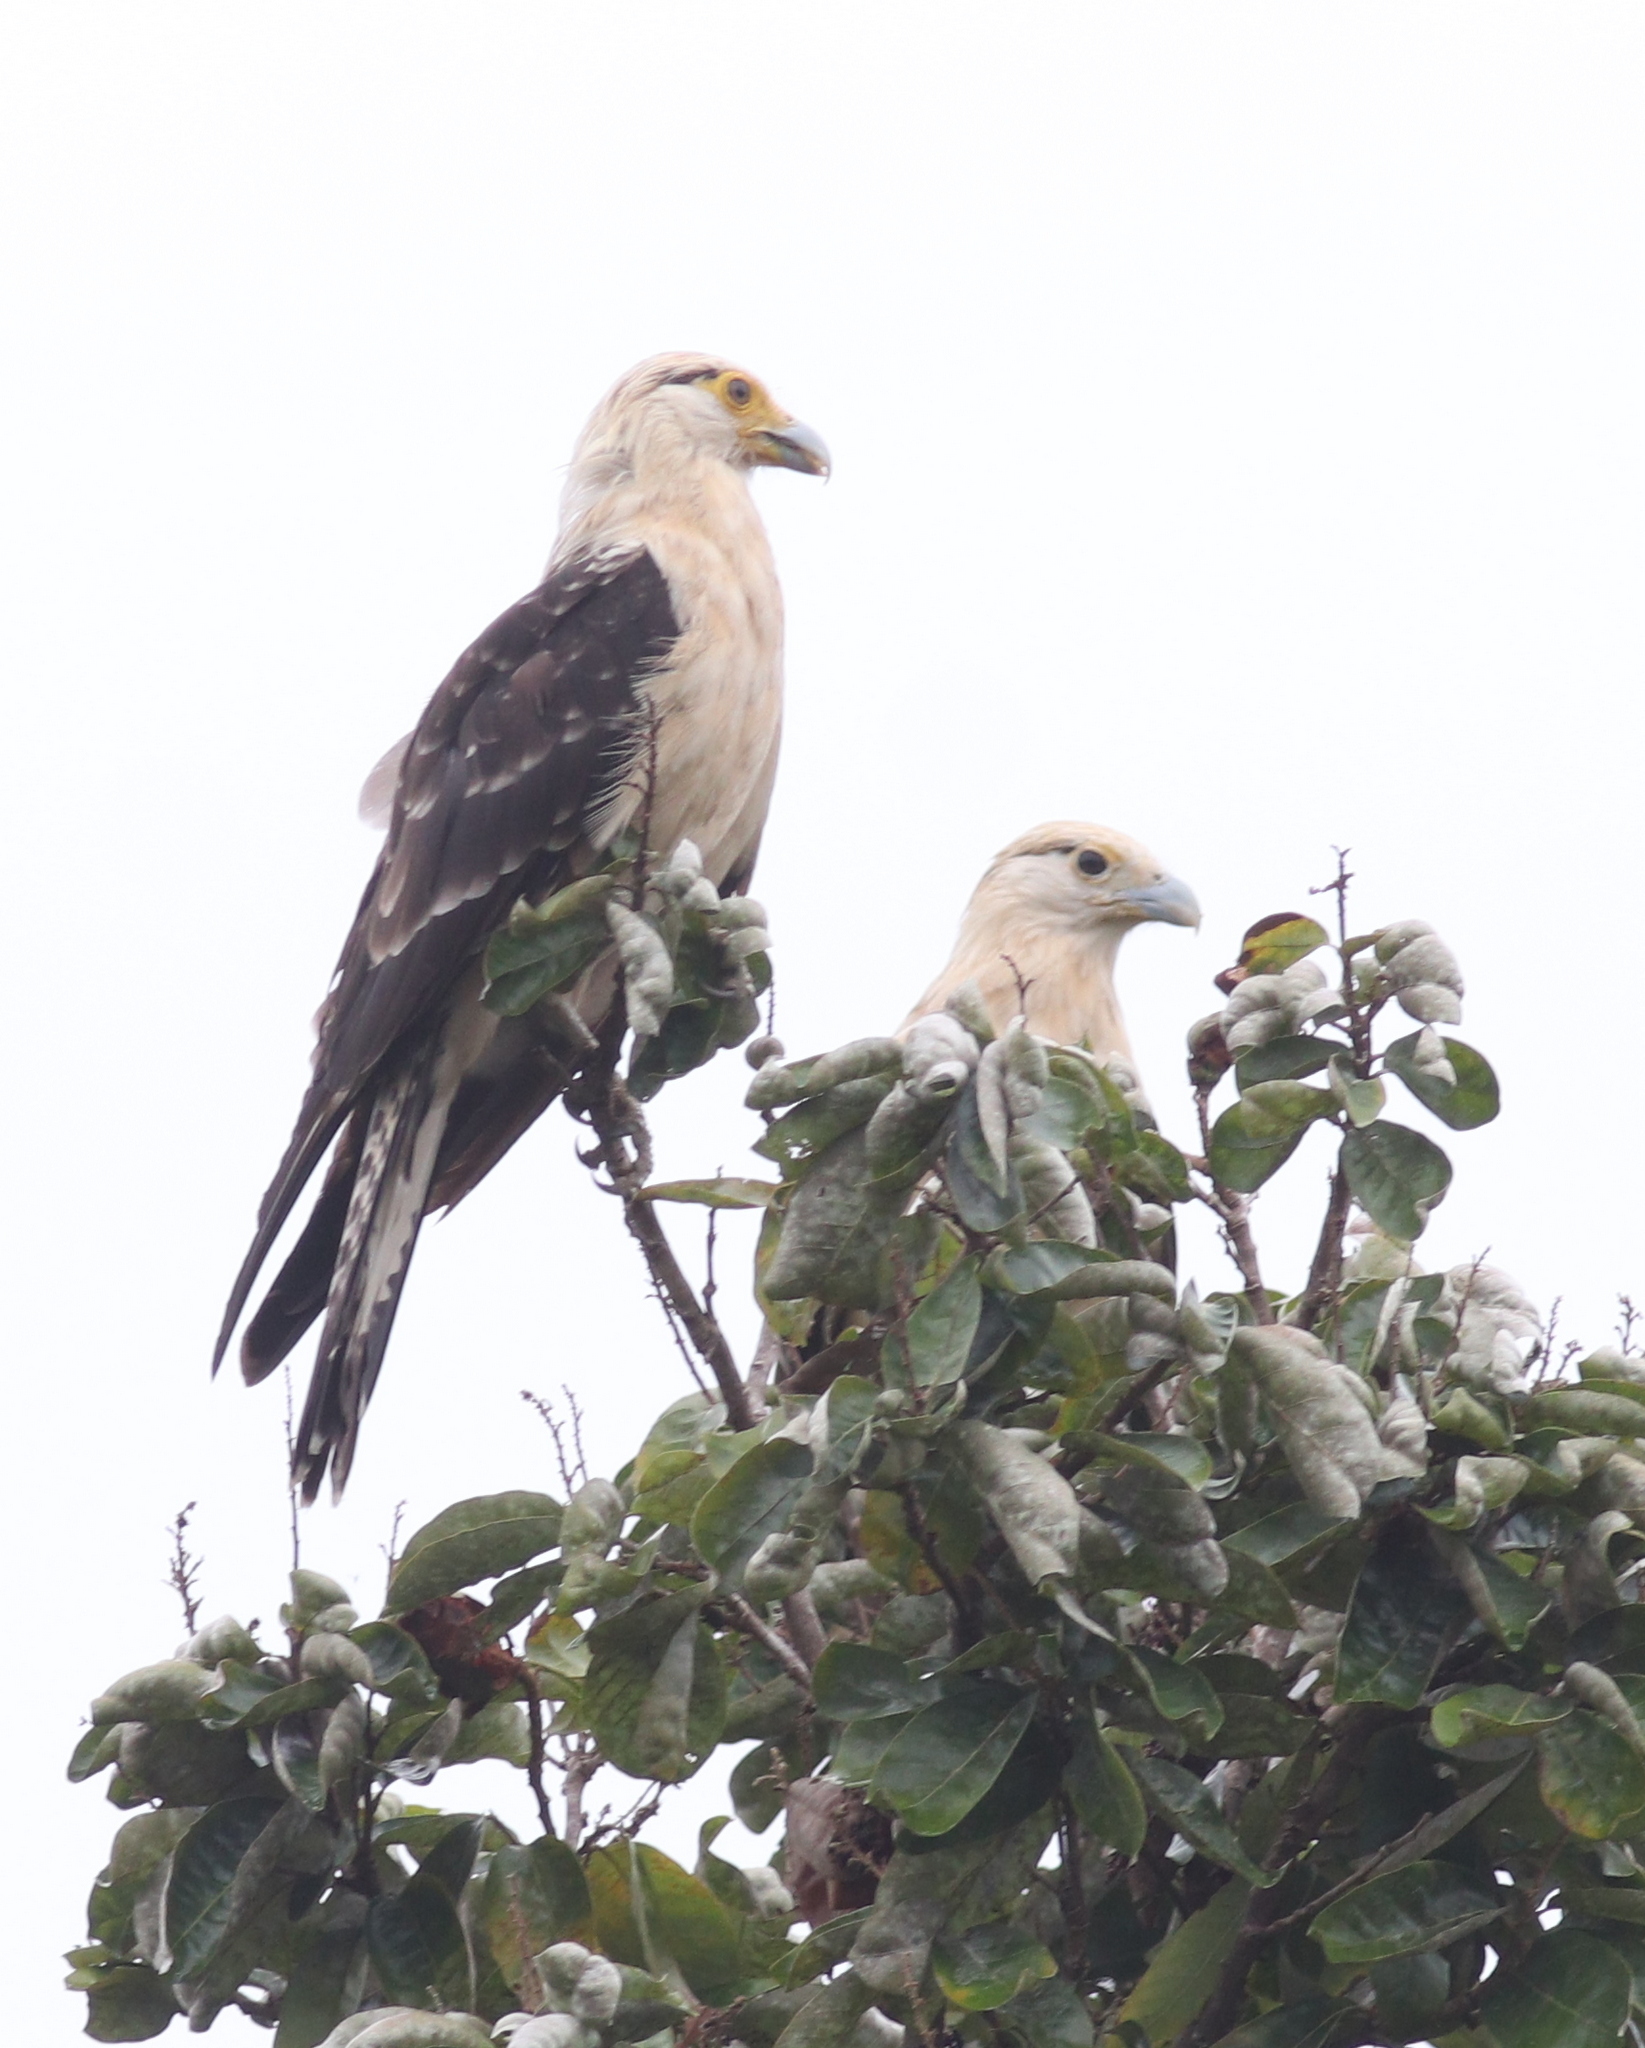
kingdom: Animalia
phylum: Chordata
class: Aves
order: Falconiformes
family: Falconidae
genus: Daptrius
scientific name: Daptrius
